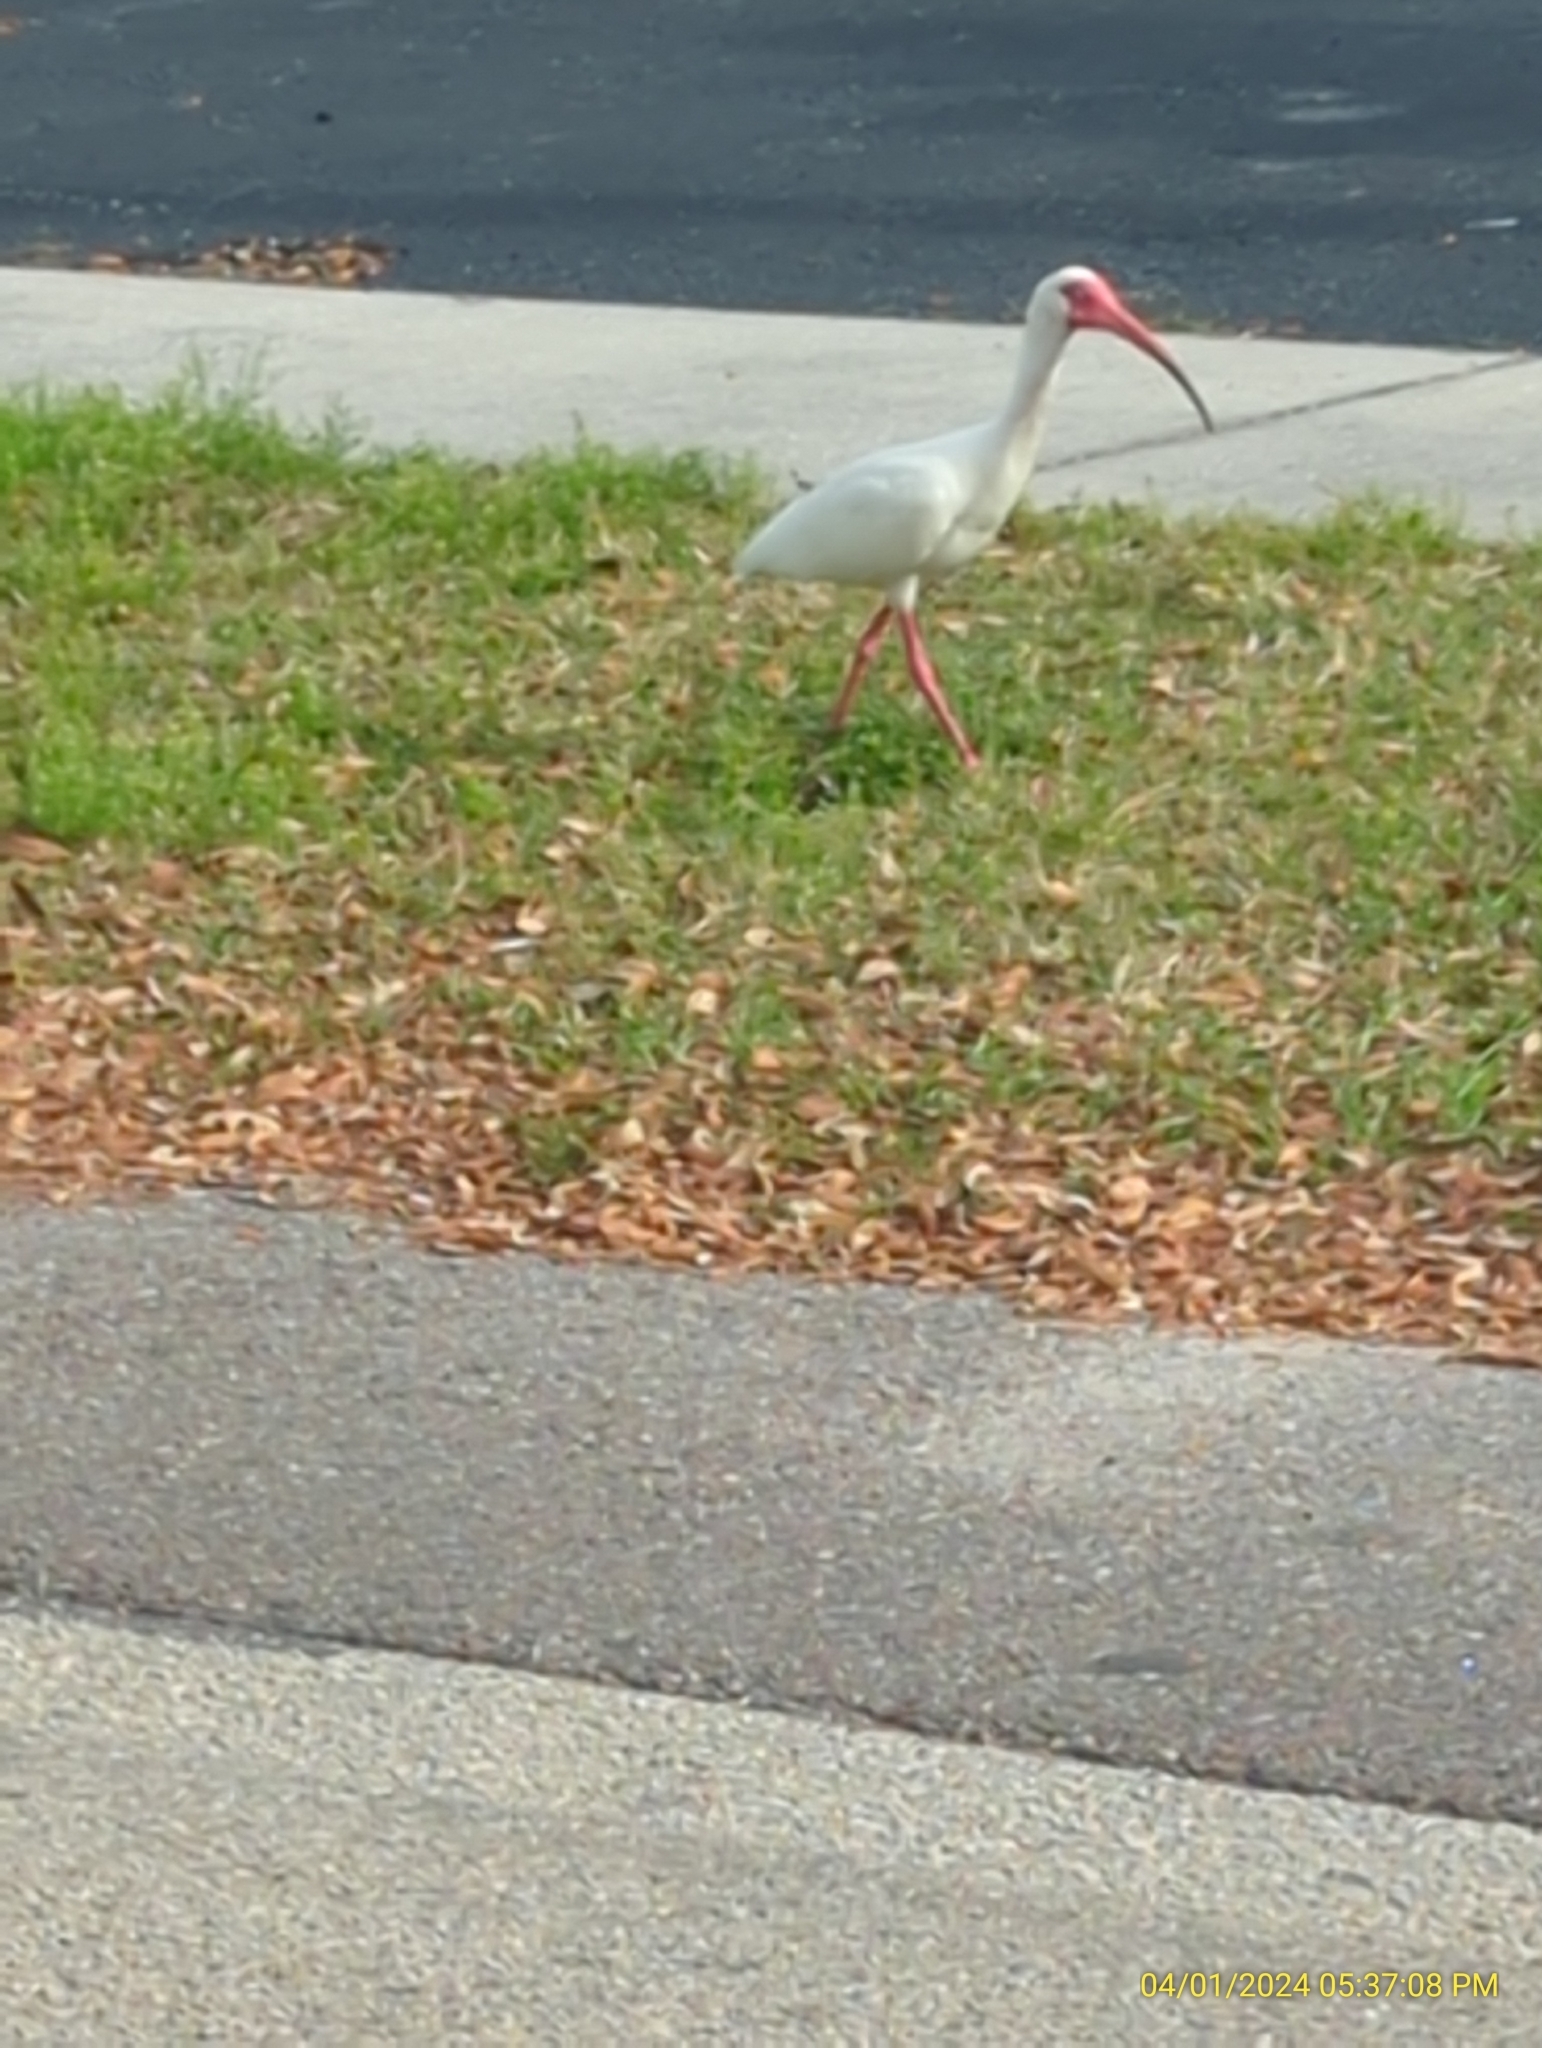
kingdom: Animalia
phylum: Chordata
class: Aves
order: Pelecaniformes
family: Threskiornithidae
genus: Eudocimus
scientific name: Eudocimus albus
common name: White ibis
